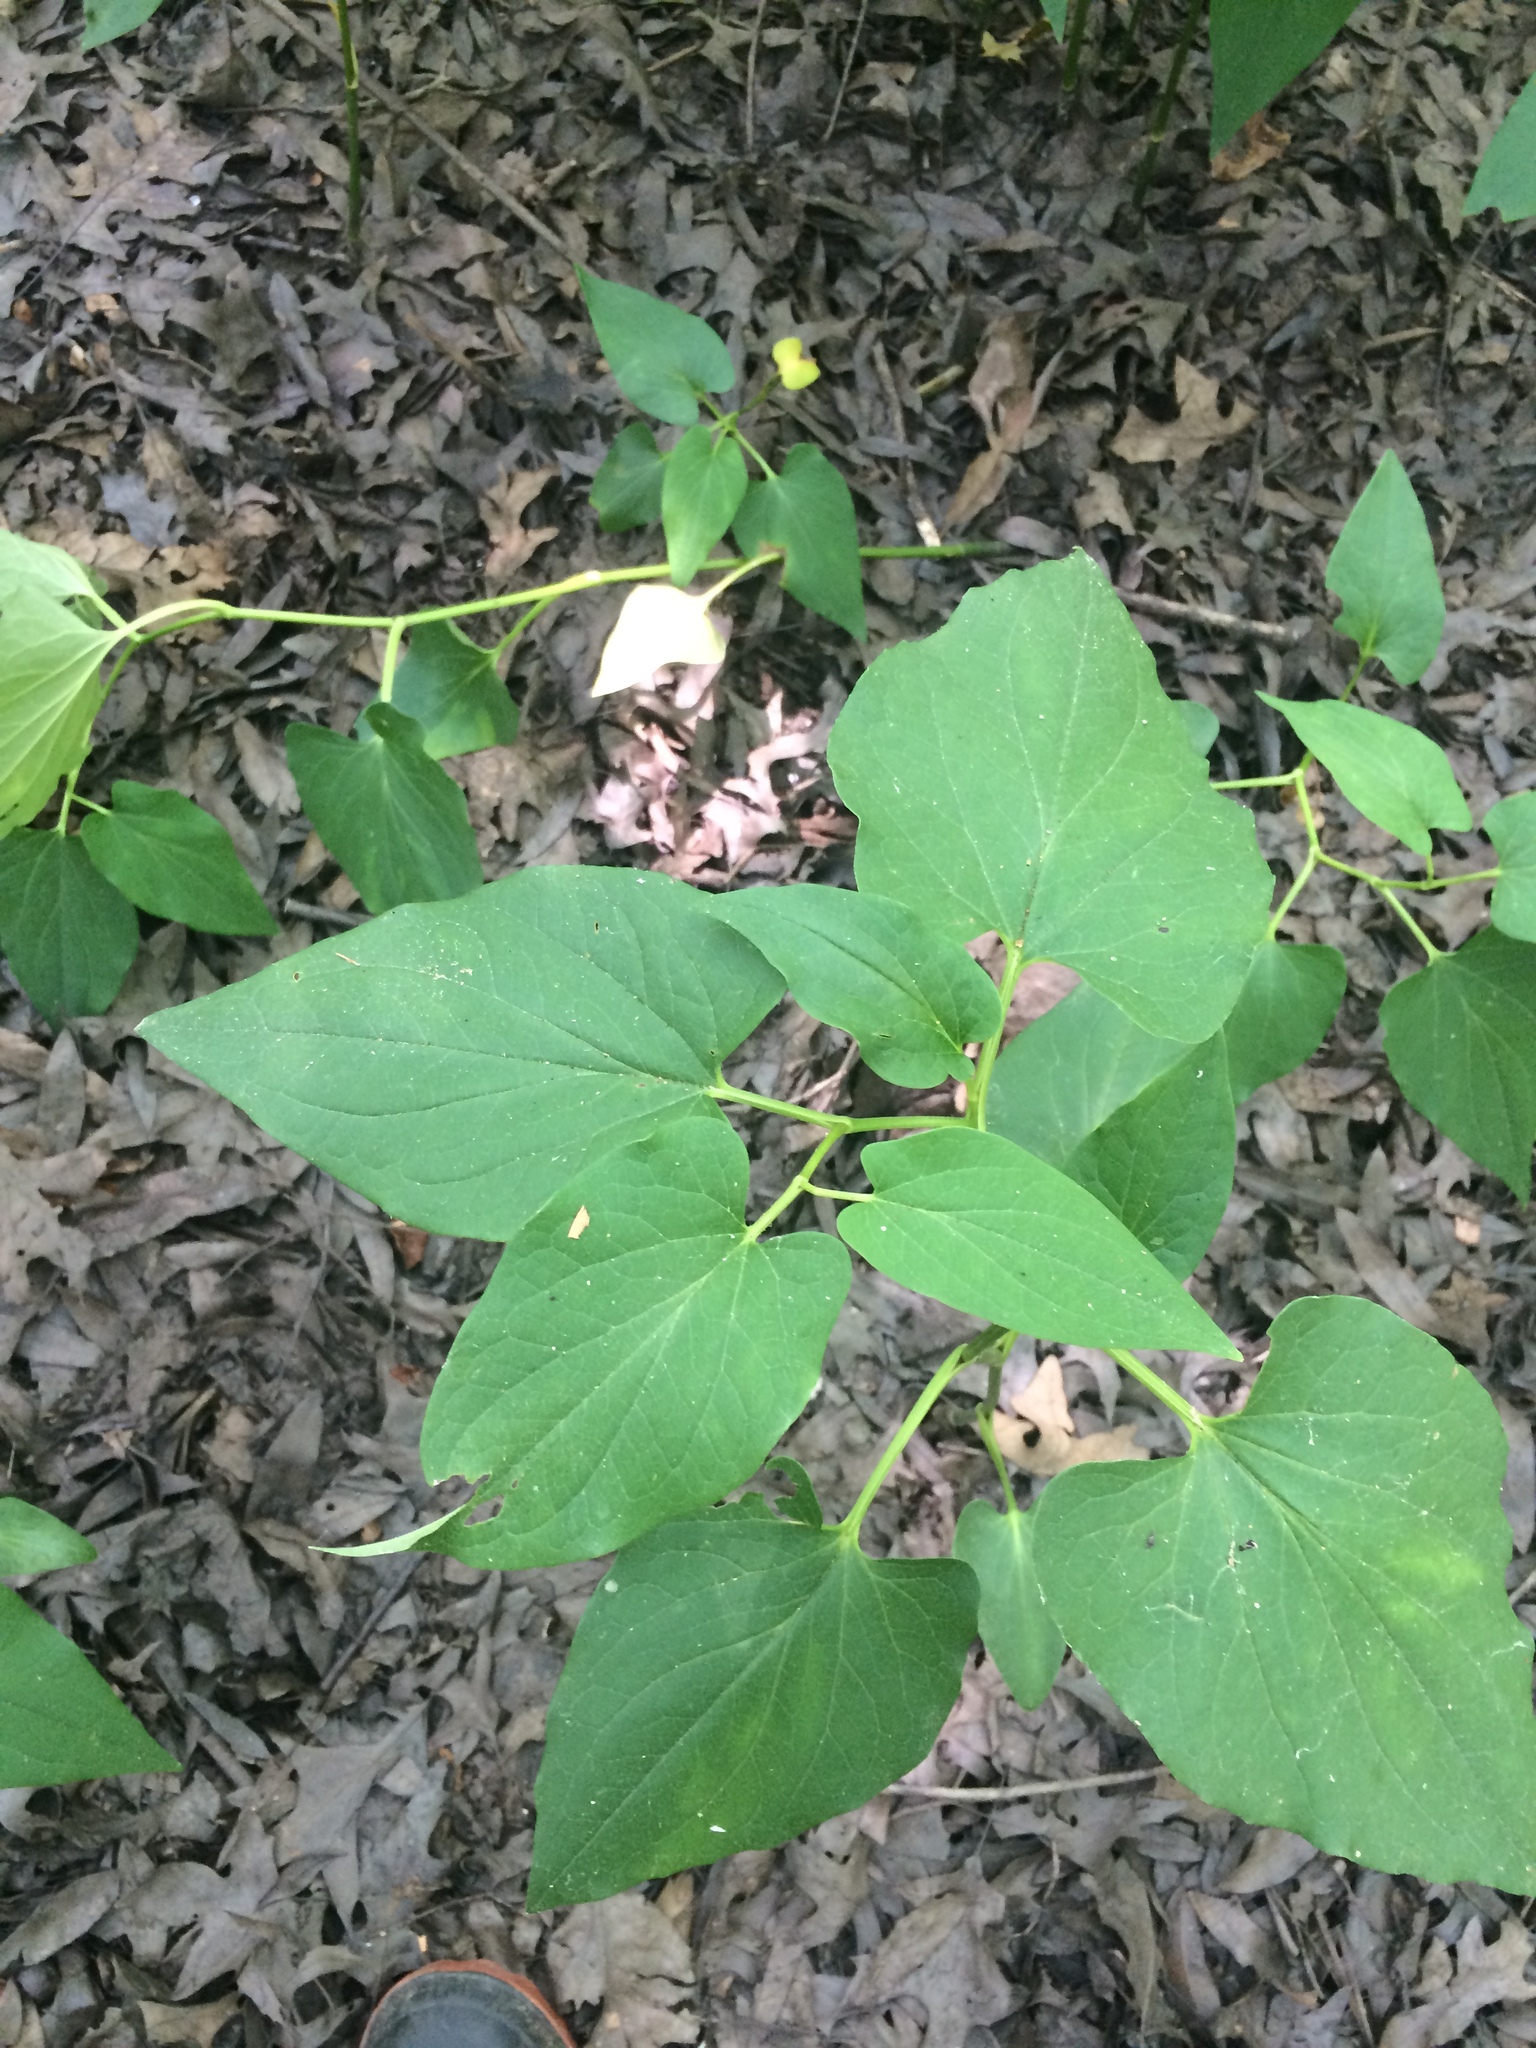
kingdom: Plantae
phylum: Tracheophyta
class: Magnoliopsida
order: Piperales
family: Saururaceae
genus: Saururus
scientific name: Saururus cernuus
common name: Lizard's-tail
